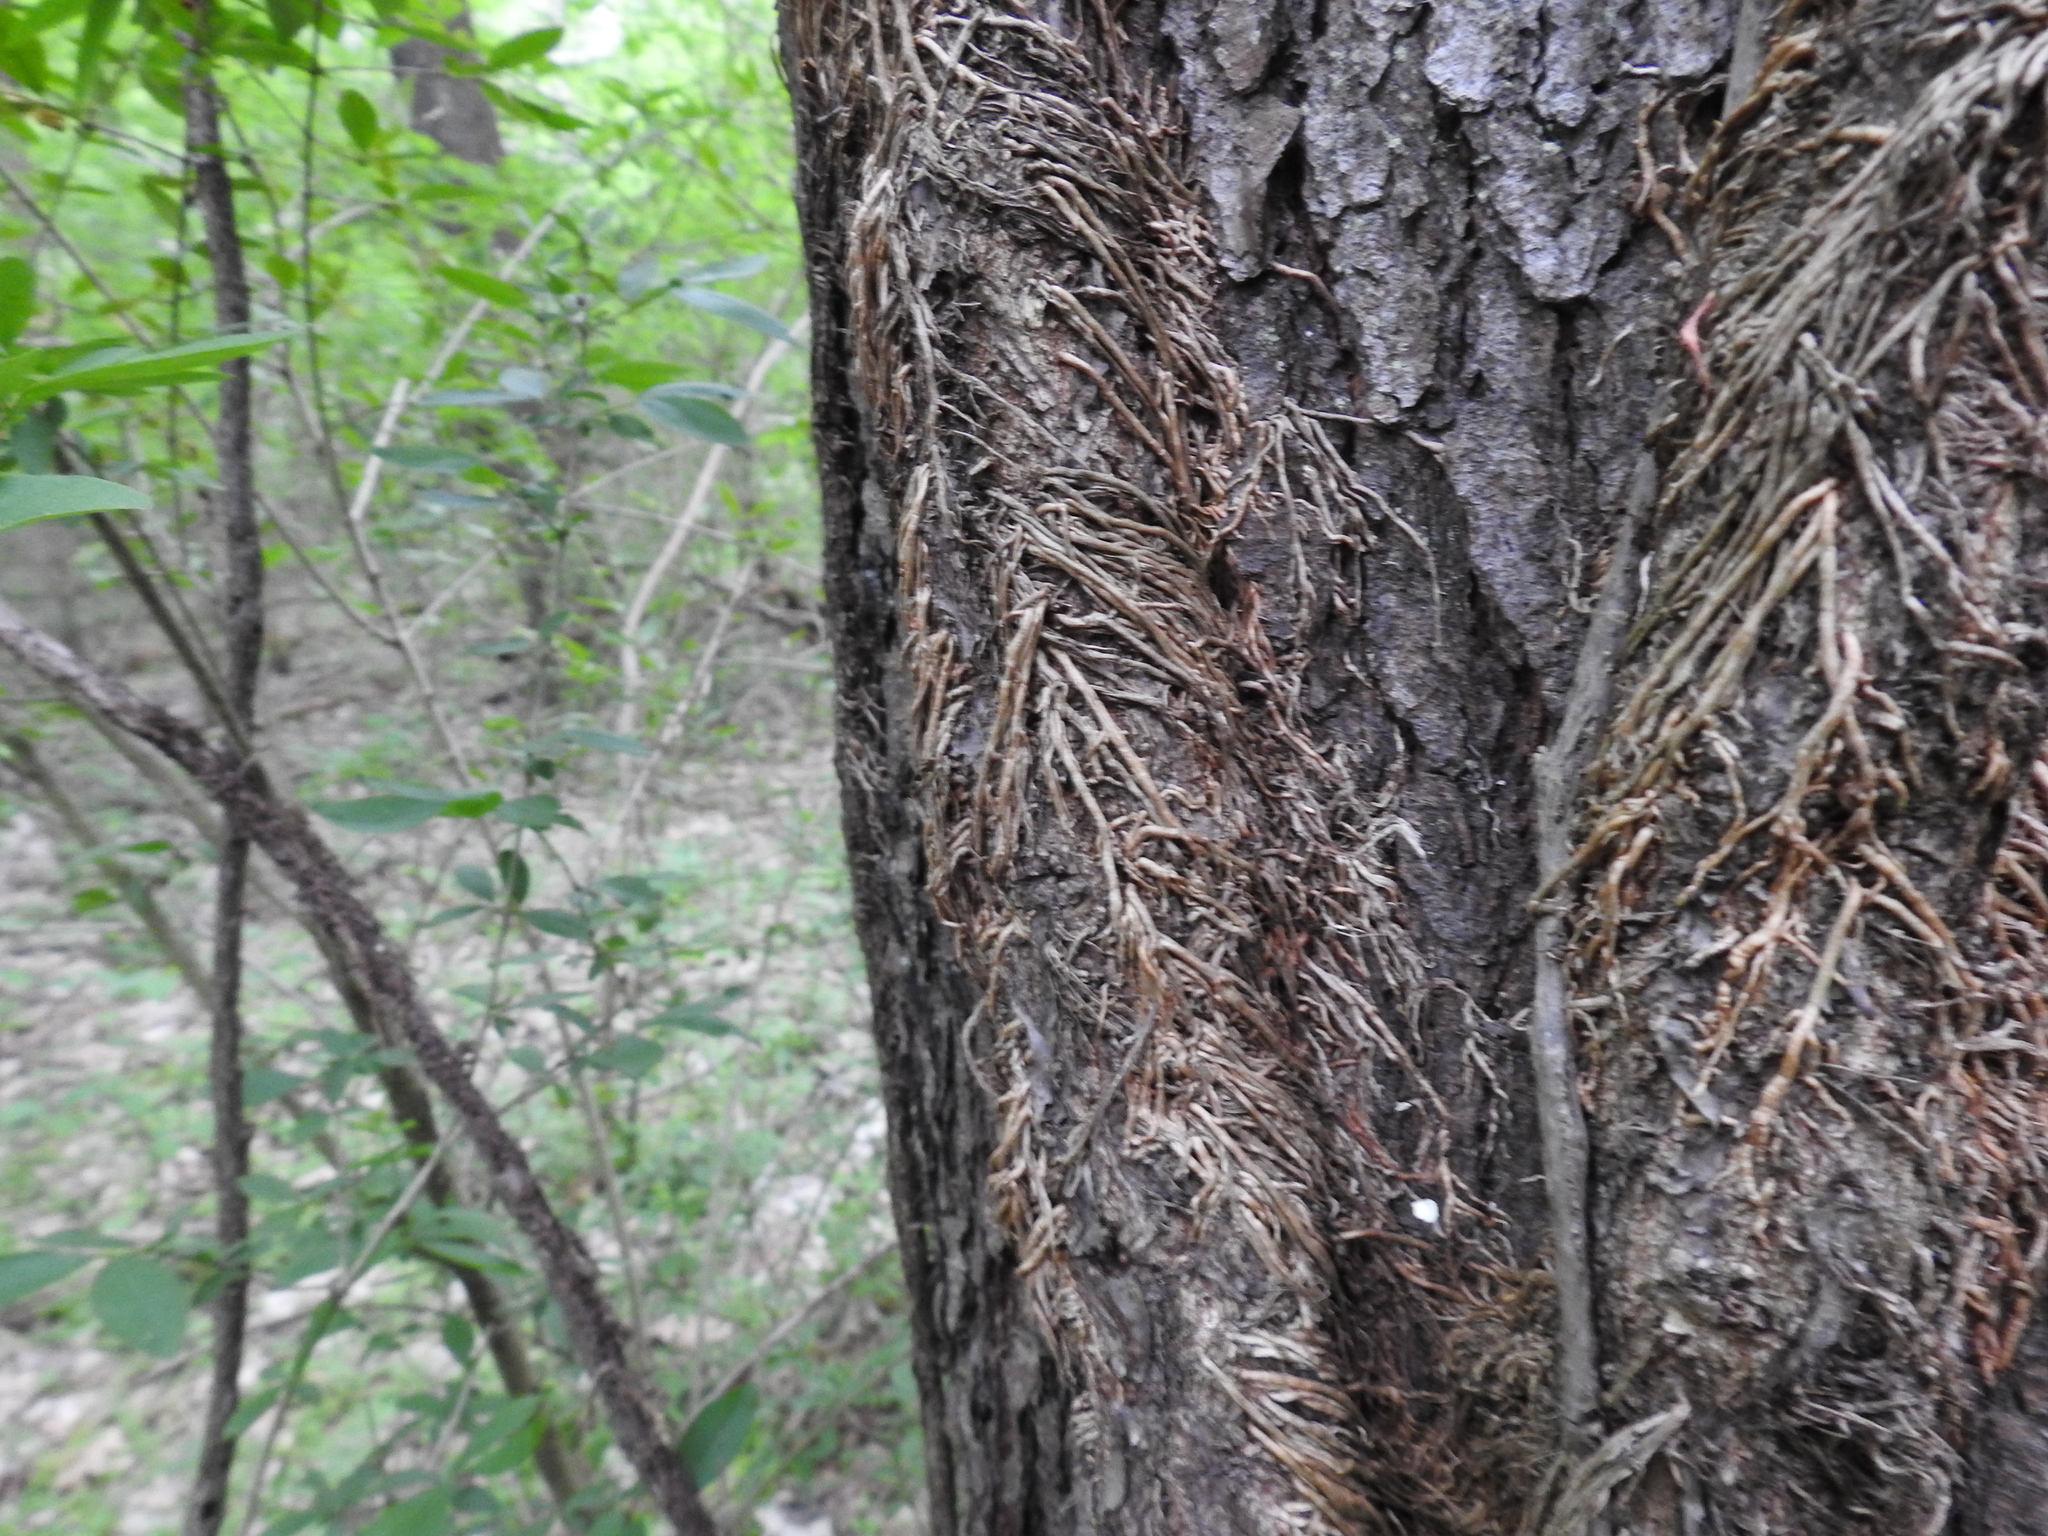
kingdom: Plantae
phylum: Tracheophyta
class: Magnoliopsida
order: Sapindales
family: Anacardiaceae
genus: Toxicodendron
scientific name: Toxicodendron radicans
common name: Poison ivy
